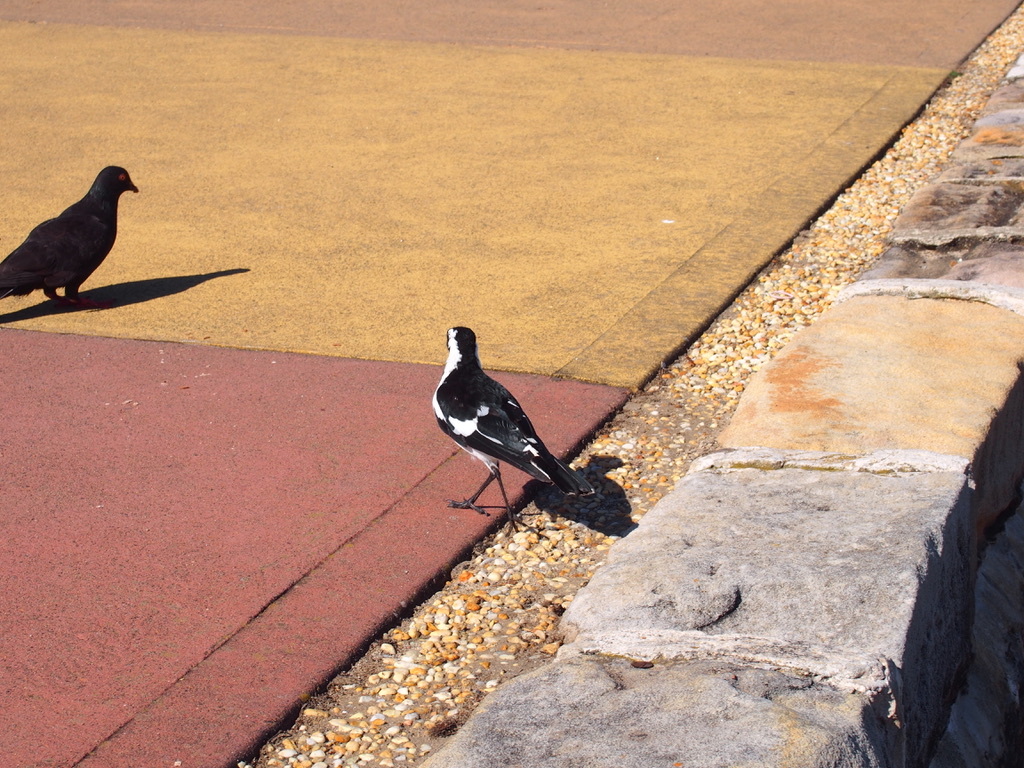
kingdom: Animalia
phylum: Chordata
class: Aves
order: Passeriformes
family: Monarchidae
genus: Grallina
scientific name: Grallina cyanoleuca
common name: Magpie-lark
